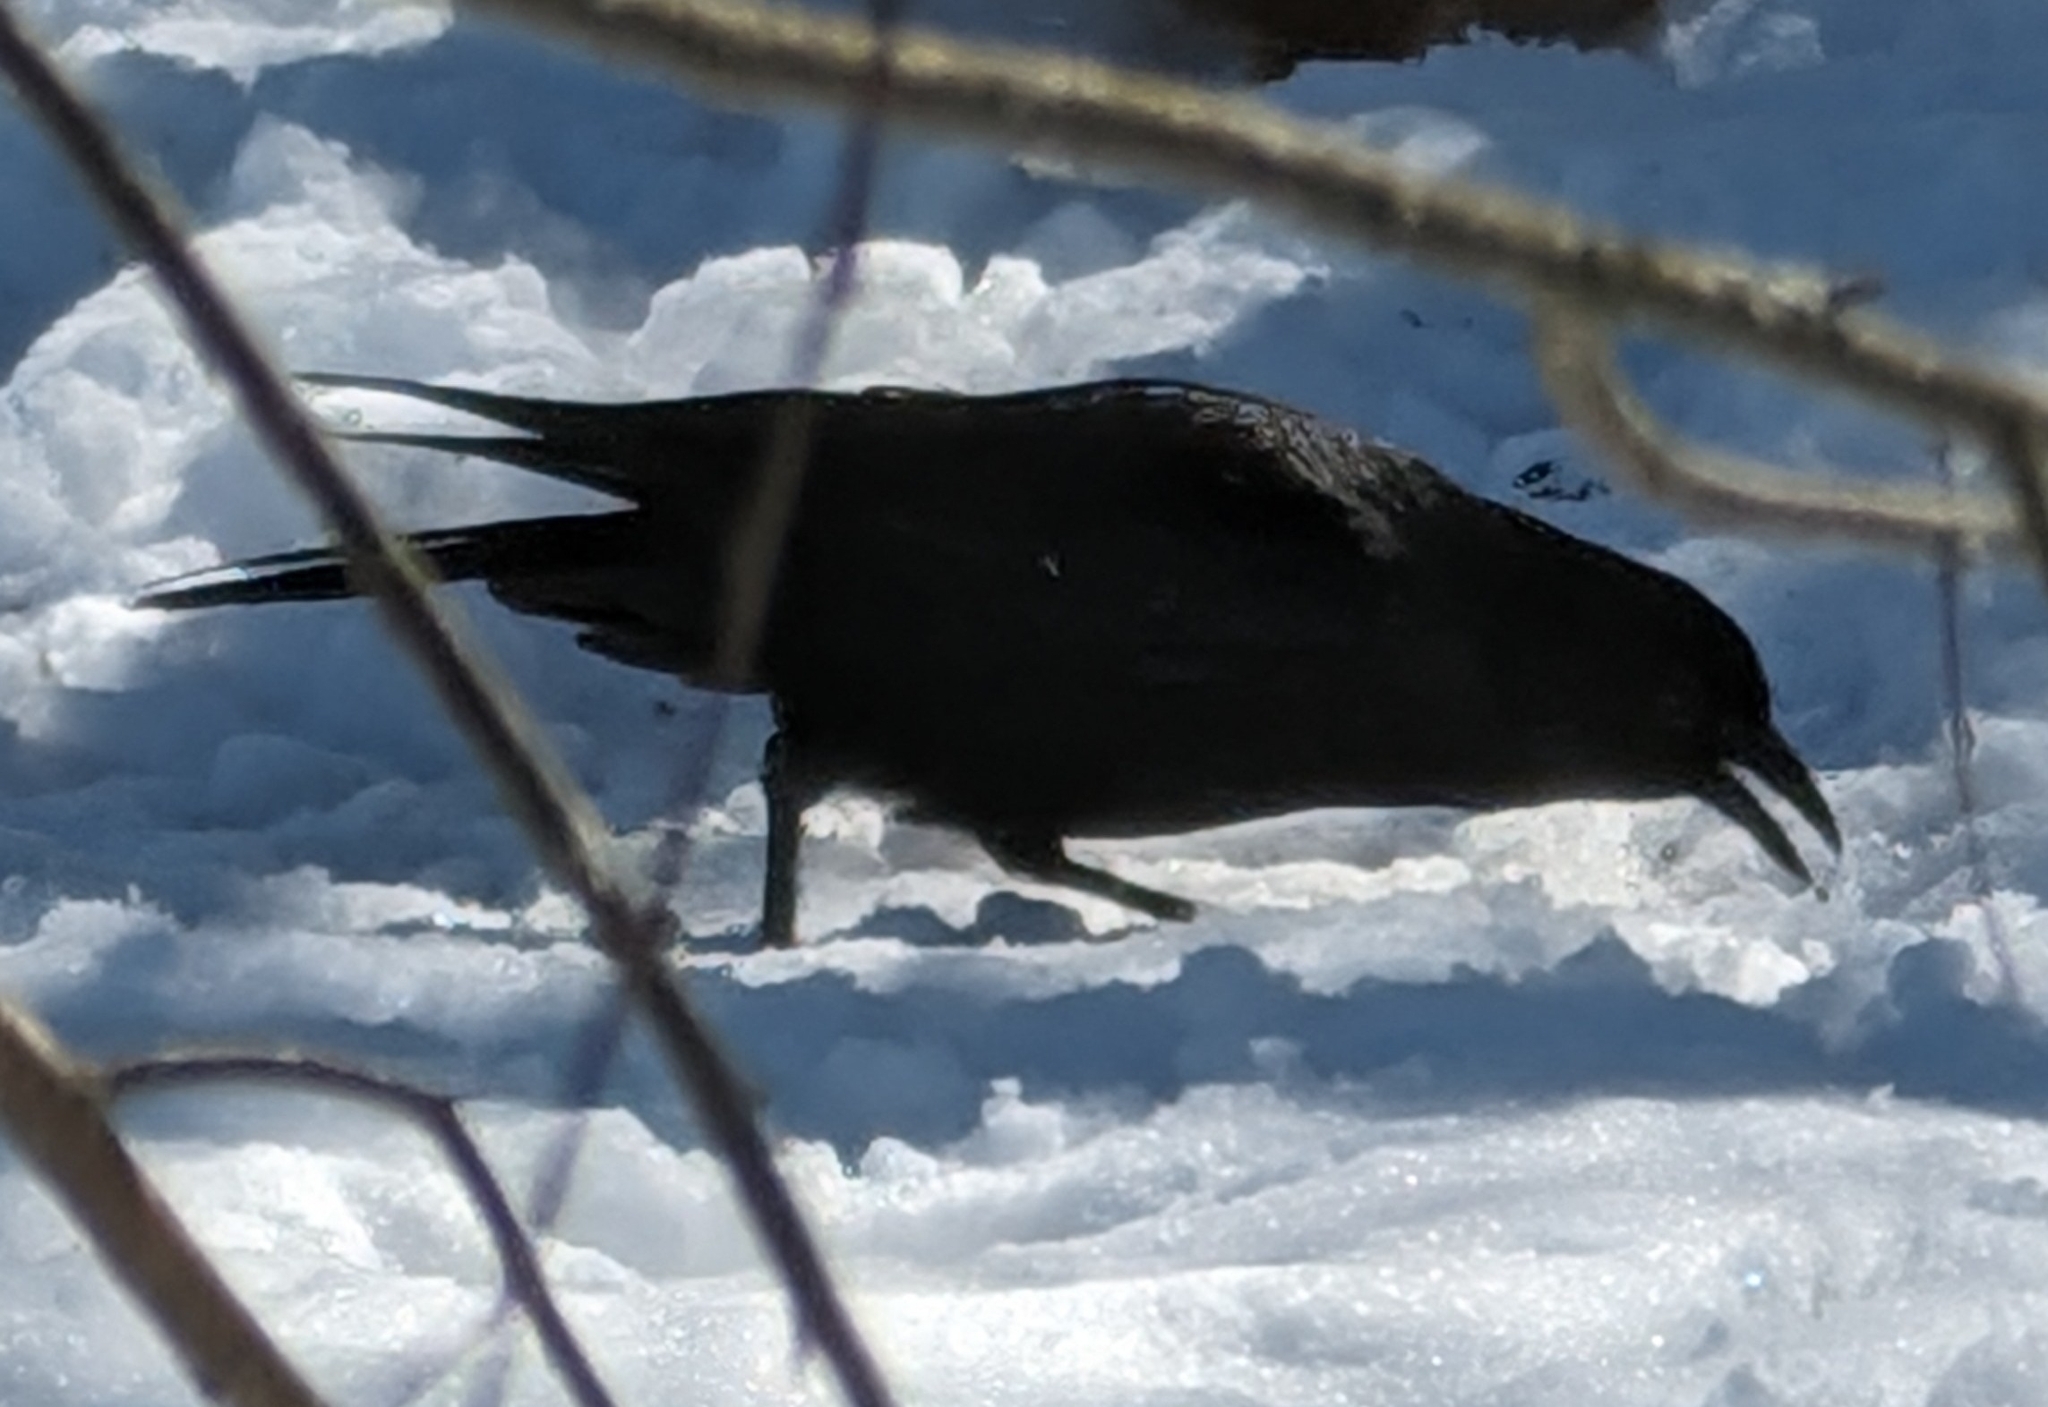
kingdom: Animalia
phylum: Chordata
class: Aves
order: Passeriformes
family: Corvidae
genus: Corvus
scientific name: Corvus brachyrhynchos
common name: American crow
